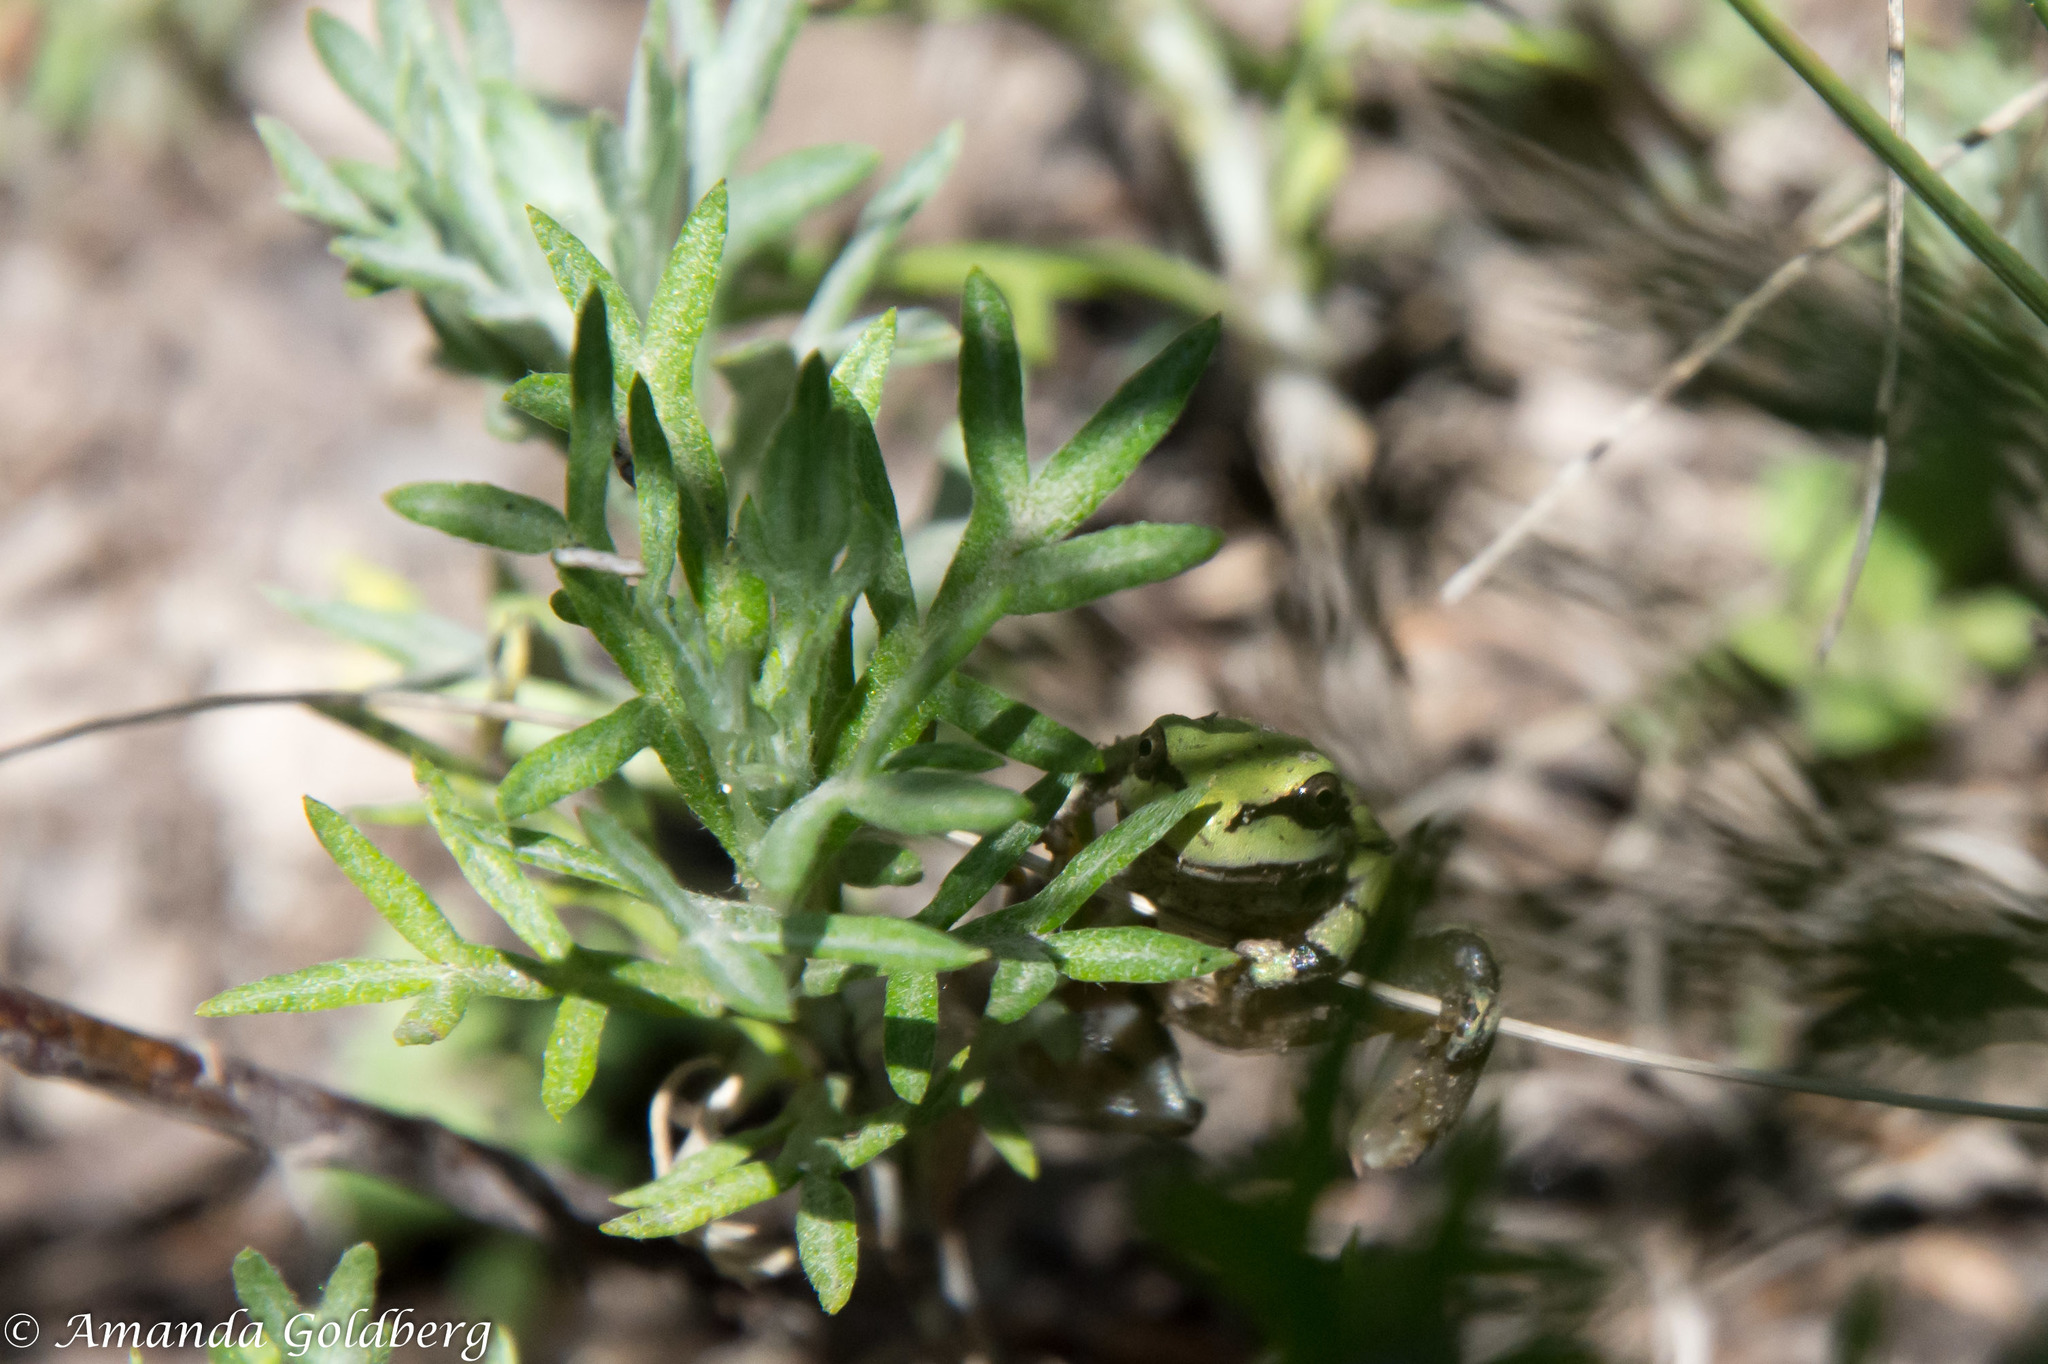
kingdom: Animalia
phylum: Chordata
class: Amphibia
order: Anura
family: Hylidae
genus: Dryophytes
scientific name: Dryophytes wrightorum
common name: Arizona treefrog
